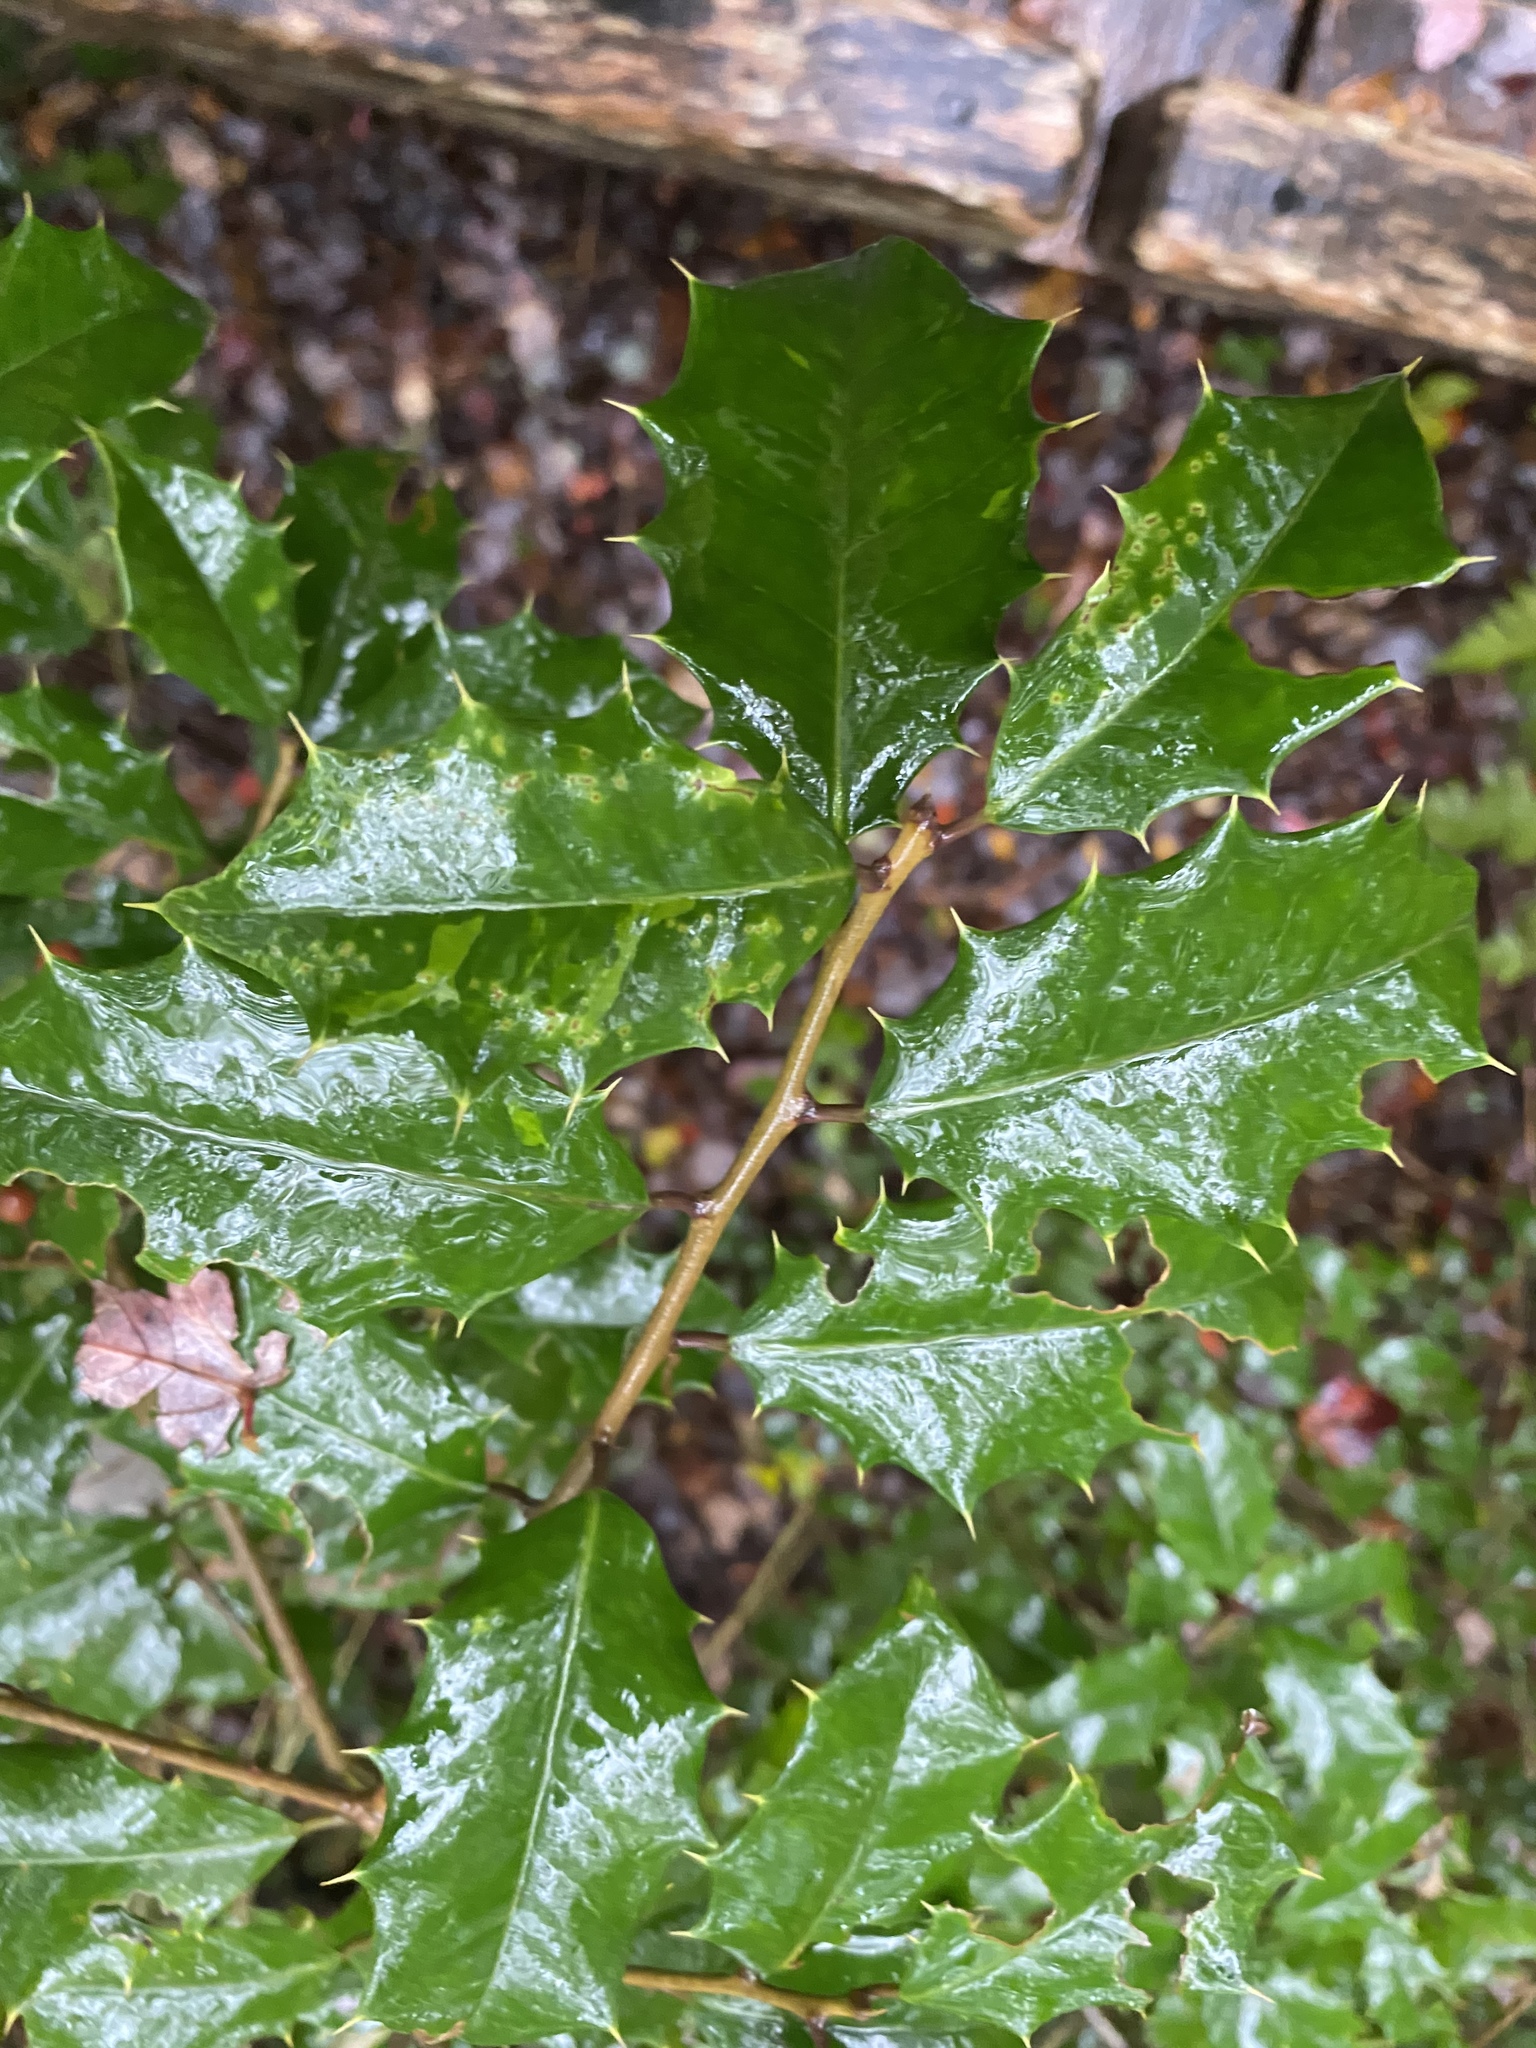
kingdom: Plantae
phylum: Tracheophyta
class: Magnoliopsida
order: Aquifoliales
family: Aquifoliaceae
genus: Ilex
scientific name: Ilex opaca
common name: American holly
